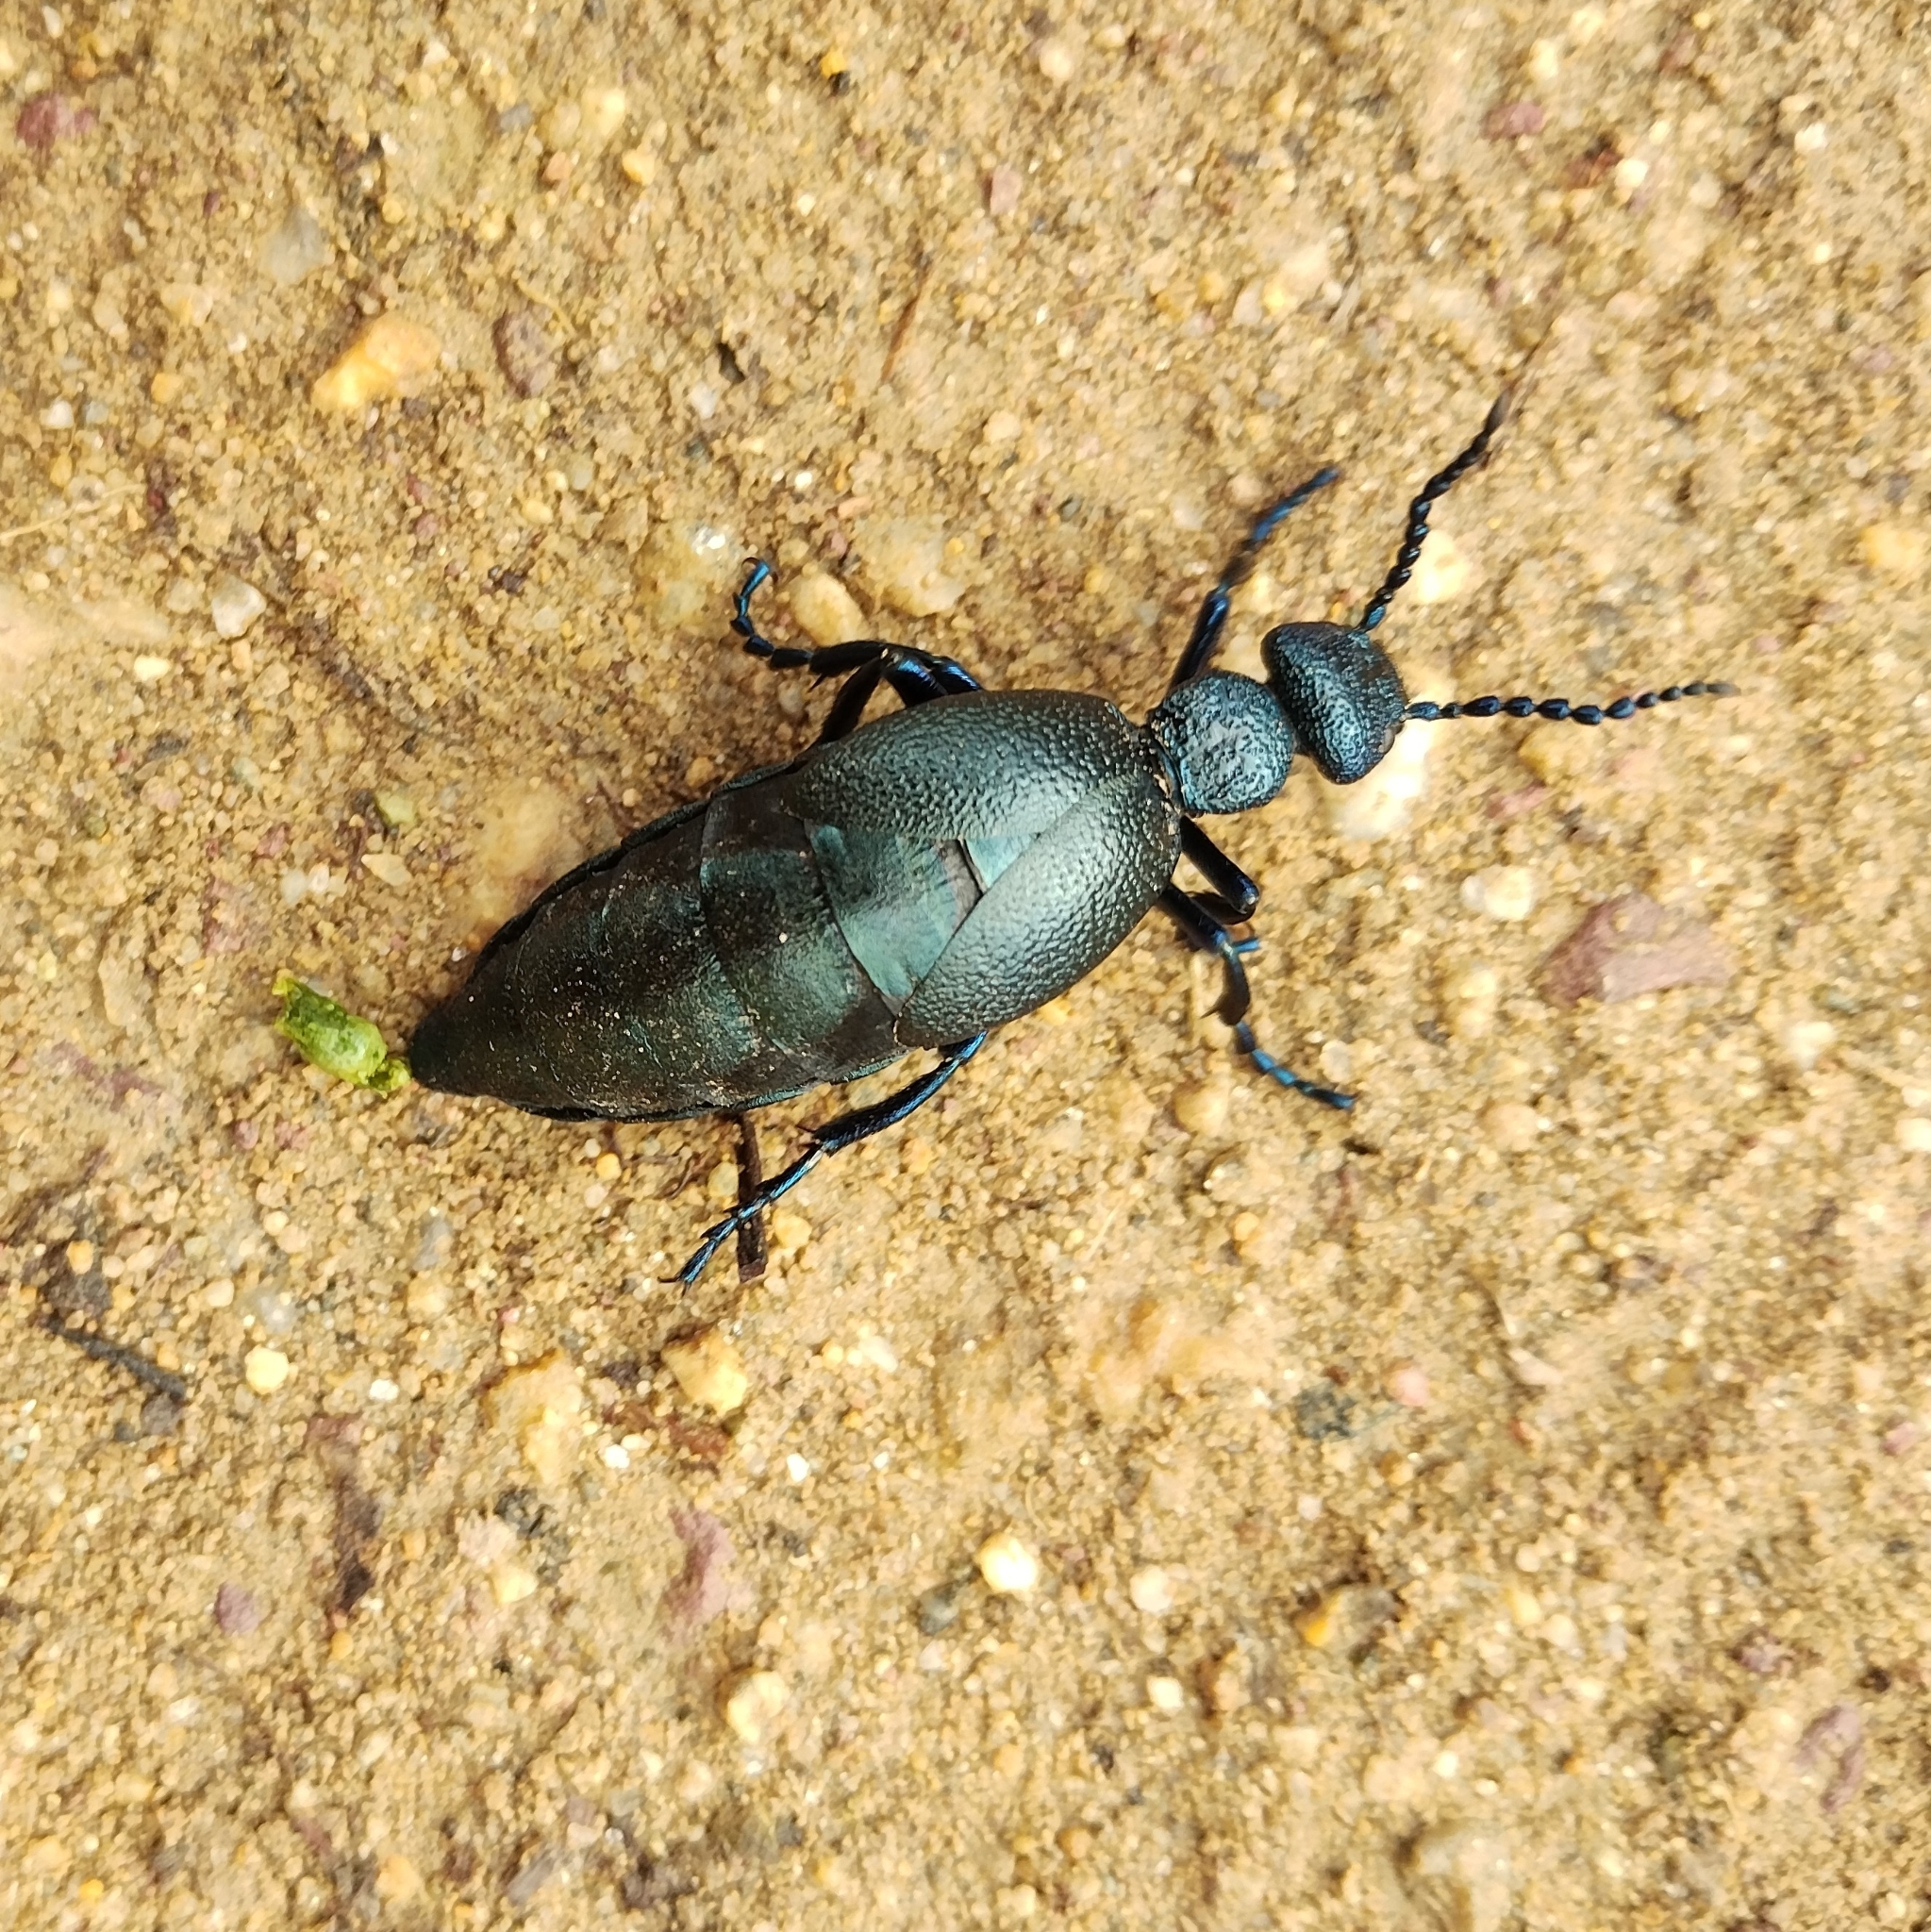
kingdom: Animalia
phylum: Arthropoda
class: Insecta
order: Coleoptera
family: Meloidae
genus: Meloe
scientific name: Meloe proscarabaeus
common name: Black oil-beetle
